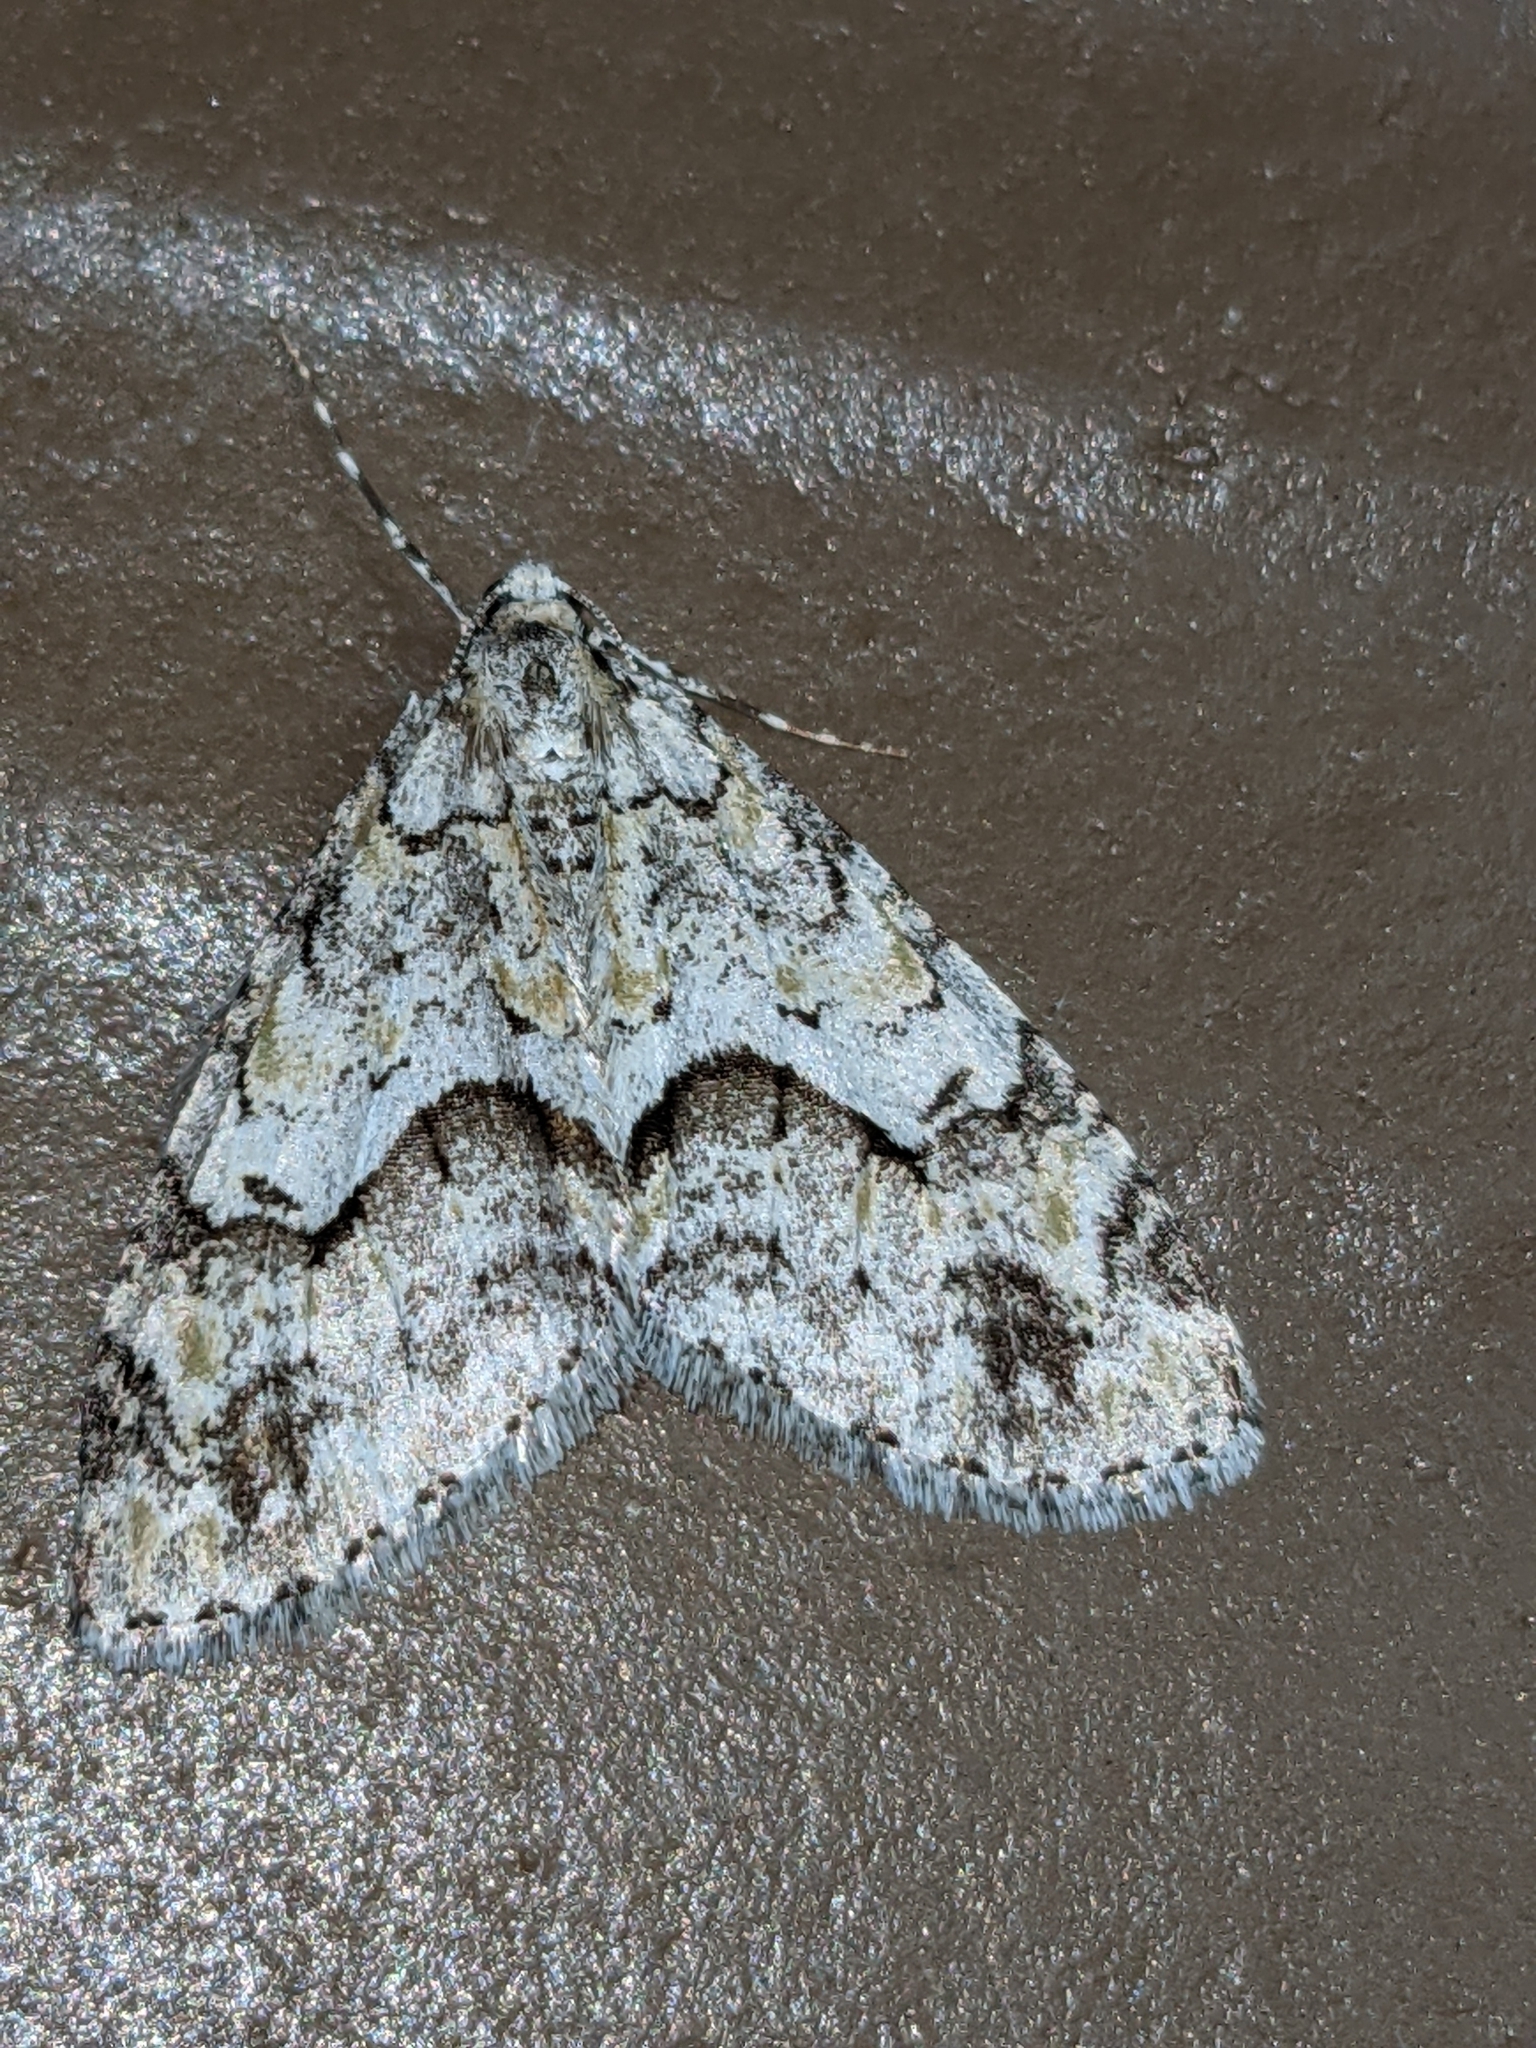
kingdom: Animalia
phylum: Arthropoda
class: Insecta
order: Lepidoptera
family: Geometridae
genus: Cladara
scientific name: Cladara limitaria
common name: Mottled gray carpet
